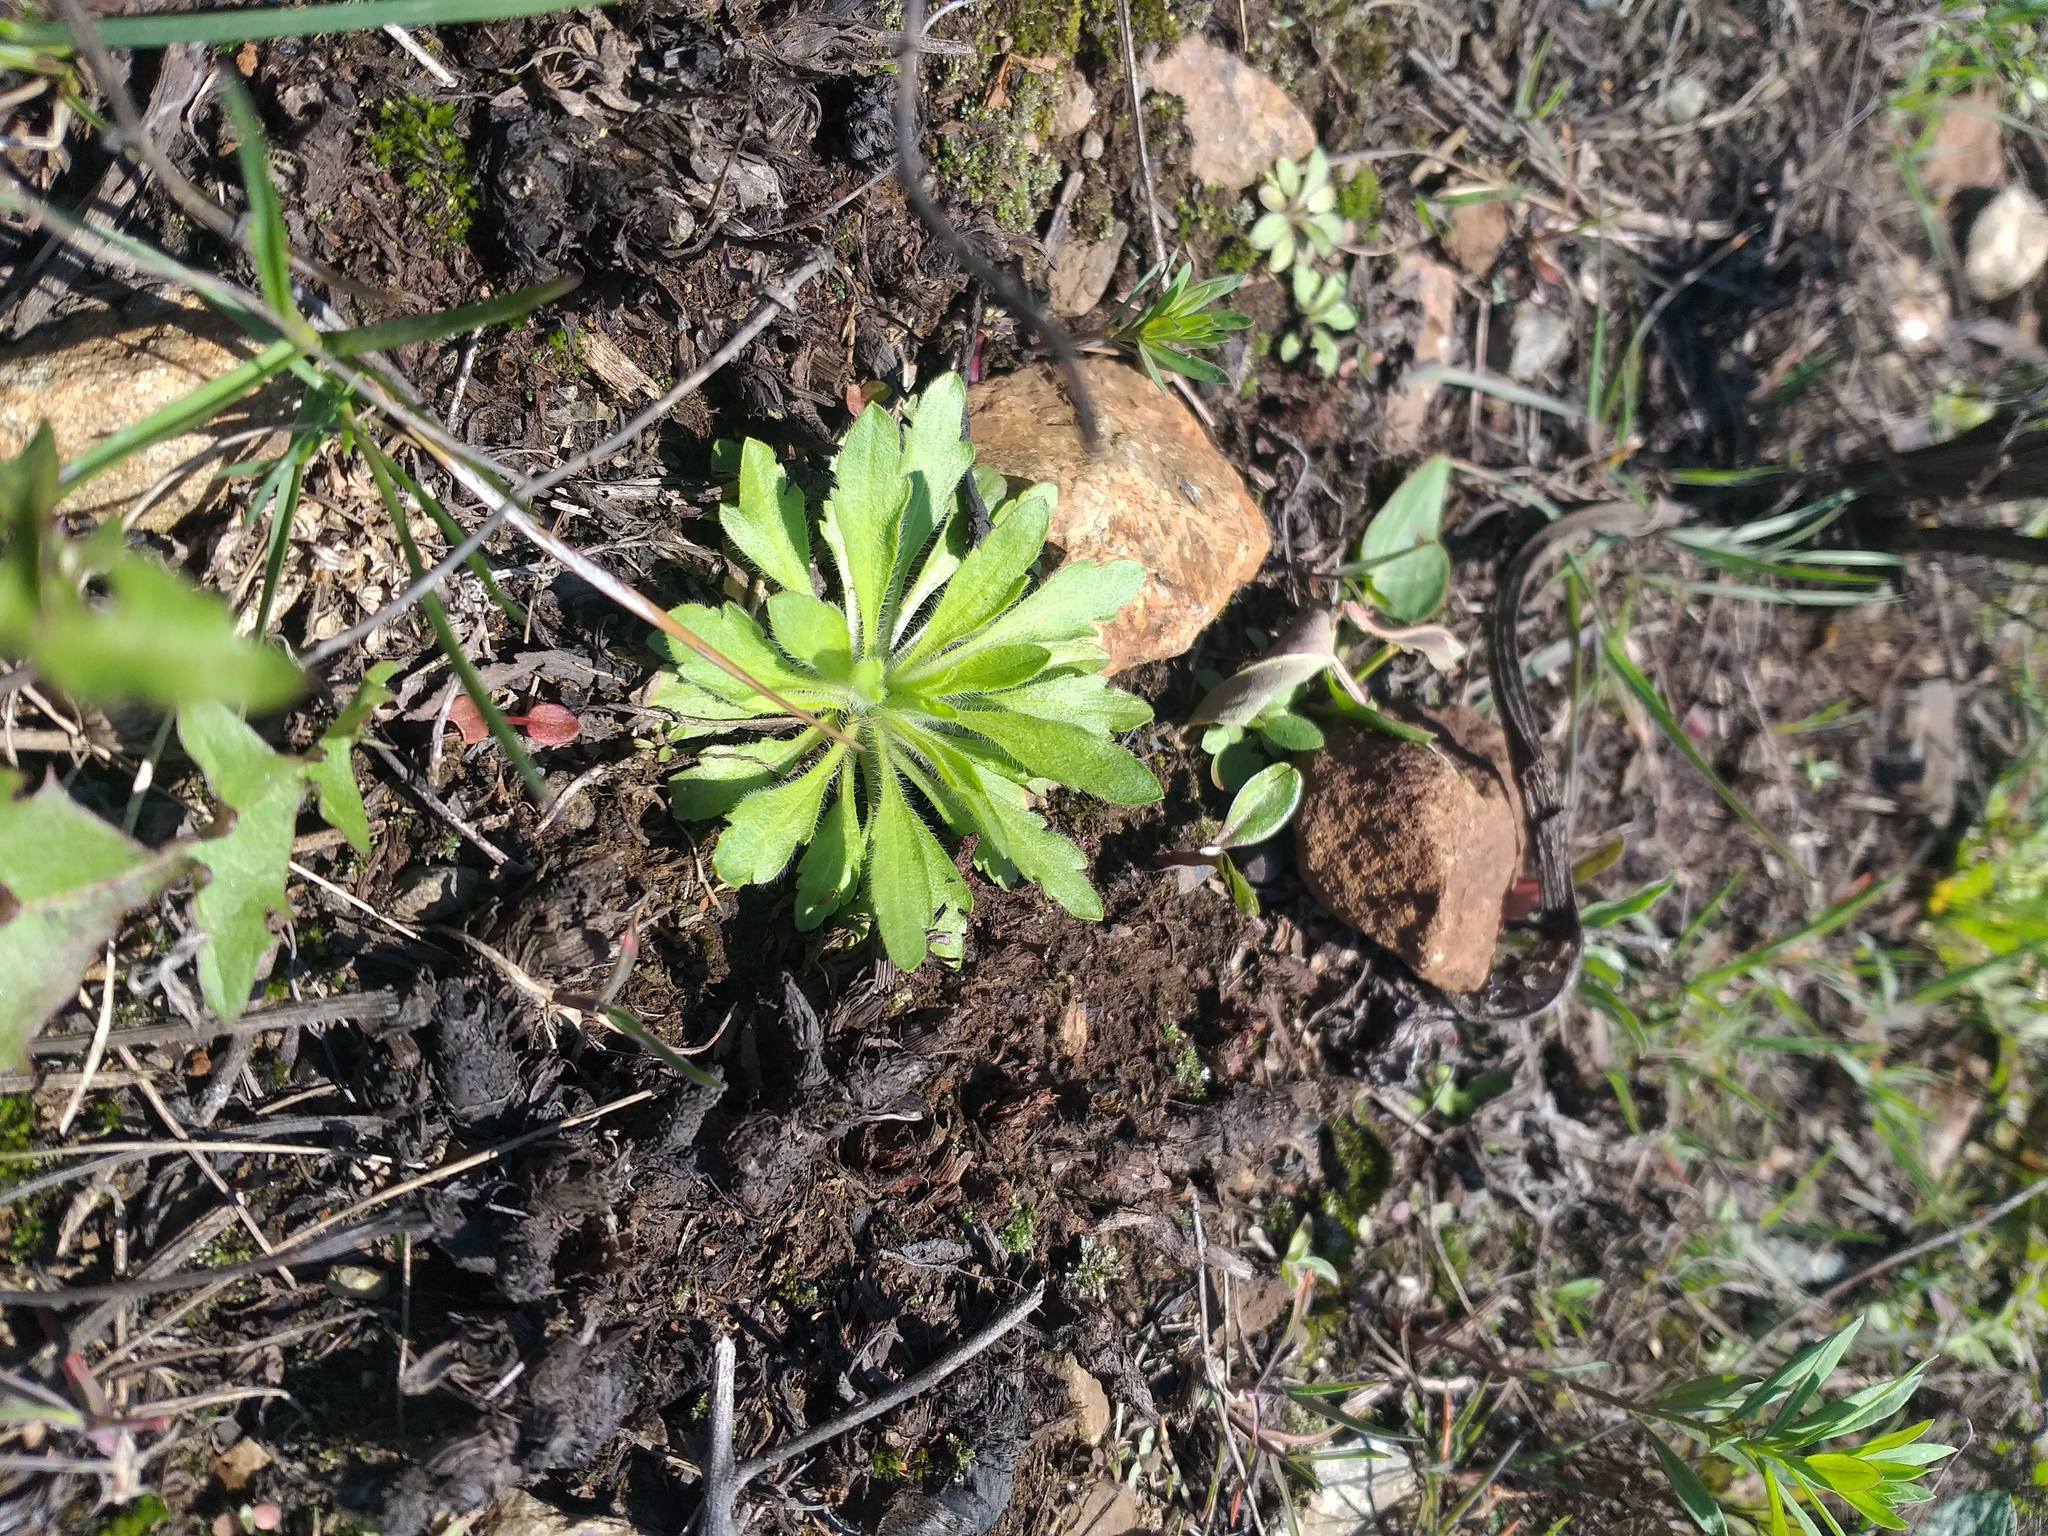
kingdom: Plantae
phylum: Tracheophyta
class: Magnoliopsida
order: Asterales
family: Asteraceae
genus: Erigeron
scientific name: Erigeron canadensis
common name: Canadian fleabane
